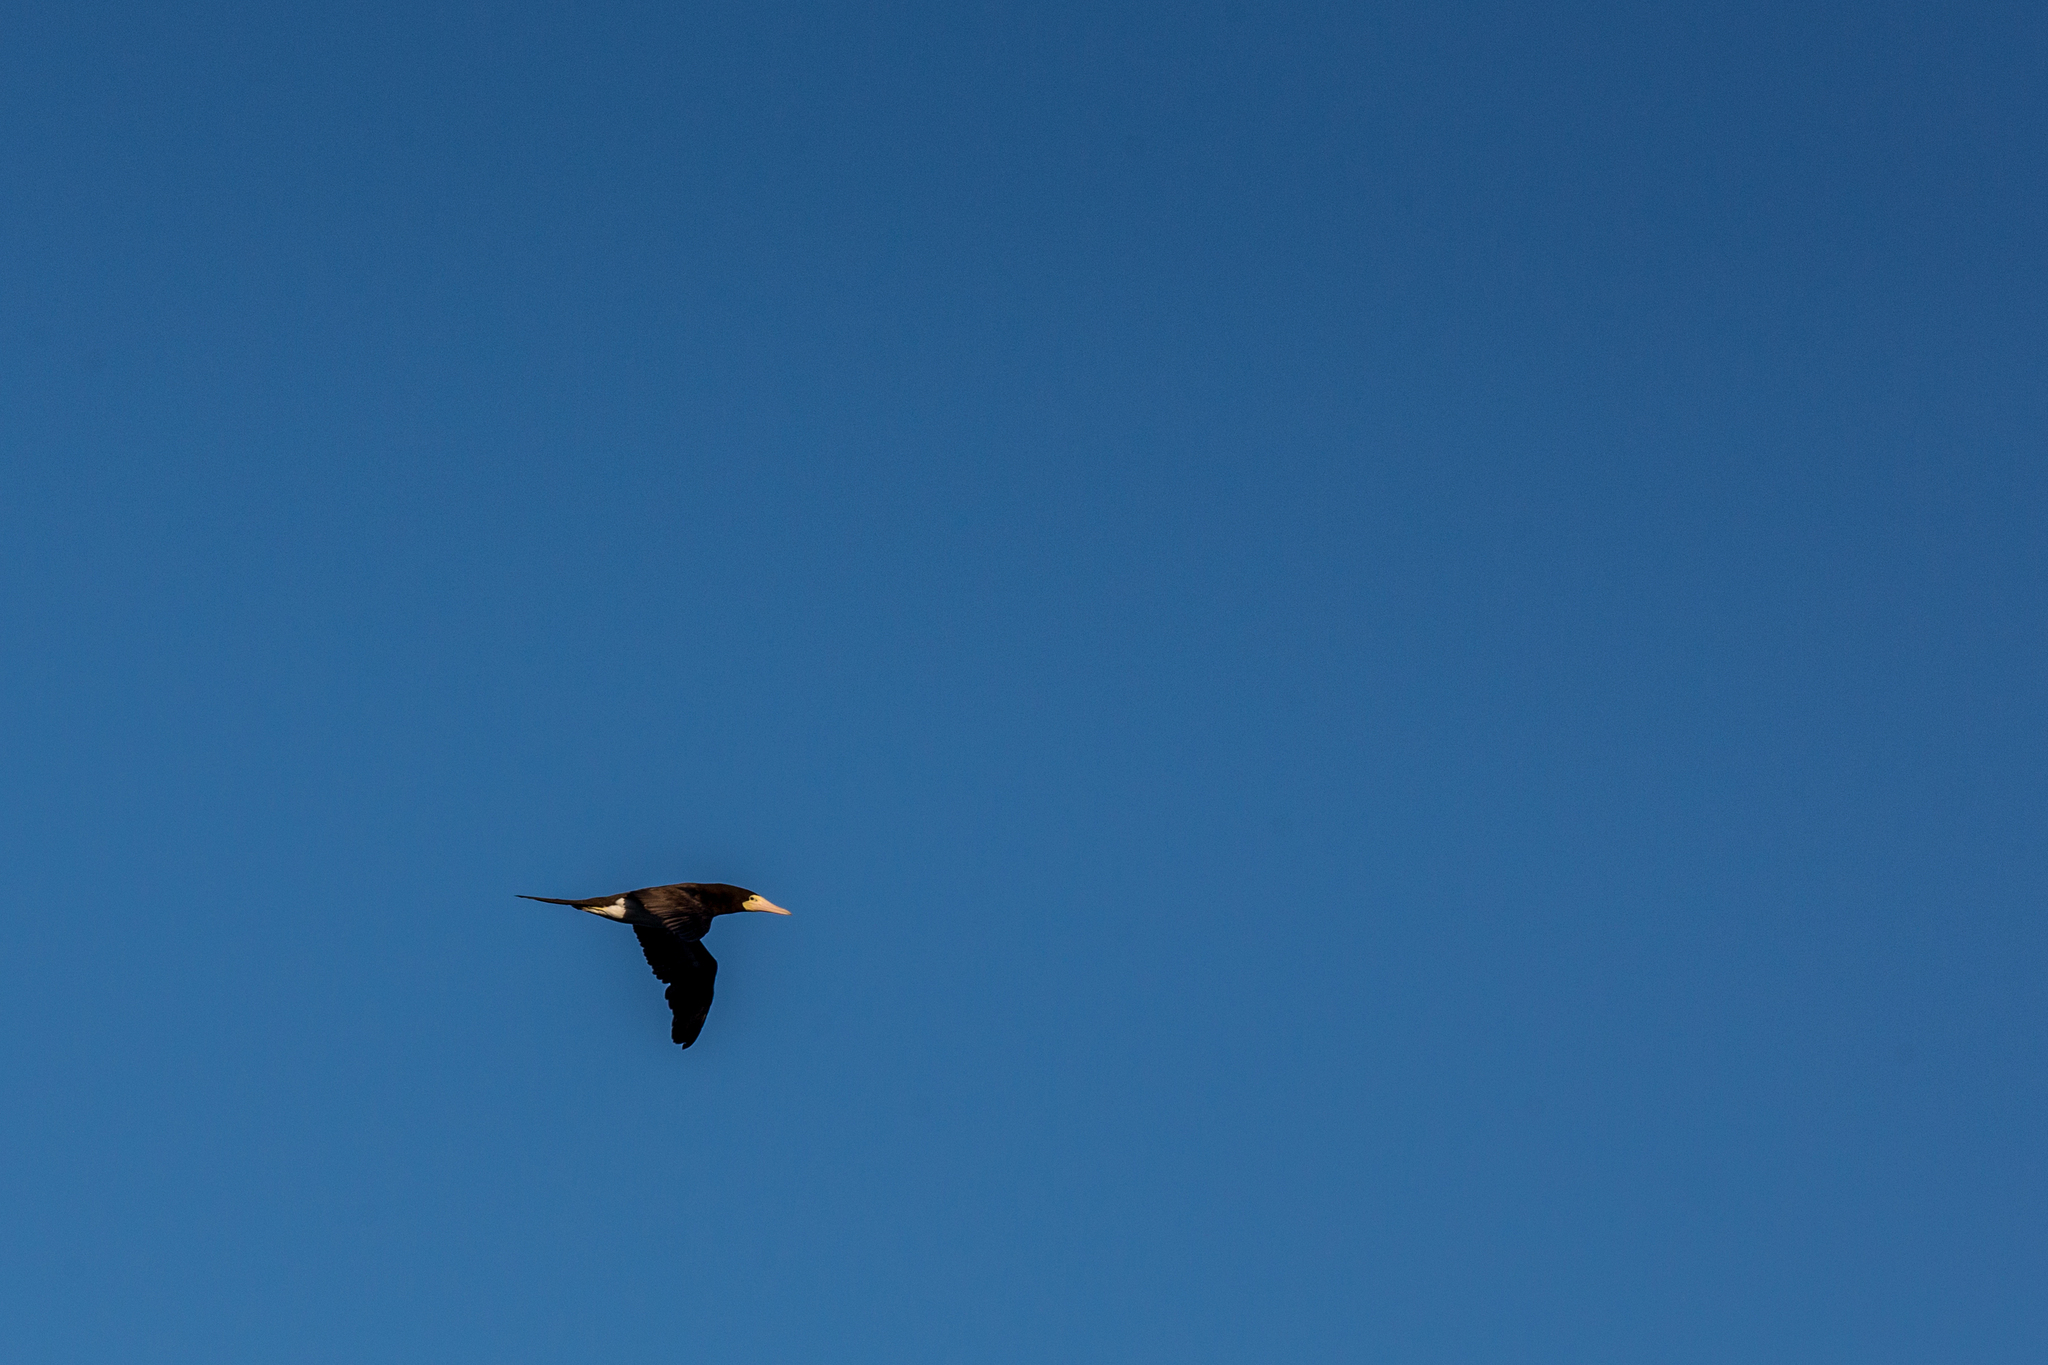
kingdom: Animalia
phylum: Chordata
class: Aves
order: Suliformes
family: Sulidae
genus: Sula
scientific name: Sula leucogaster
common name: Brown booby
